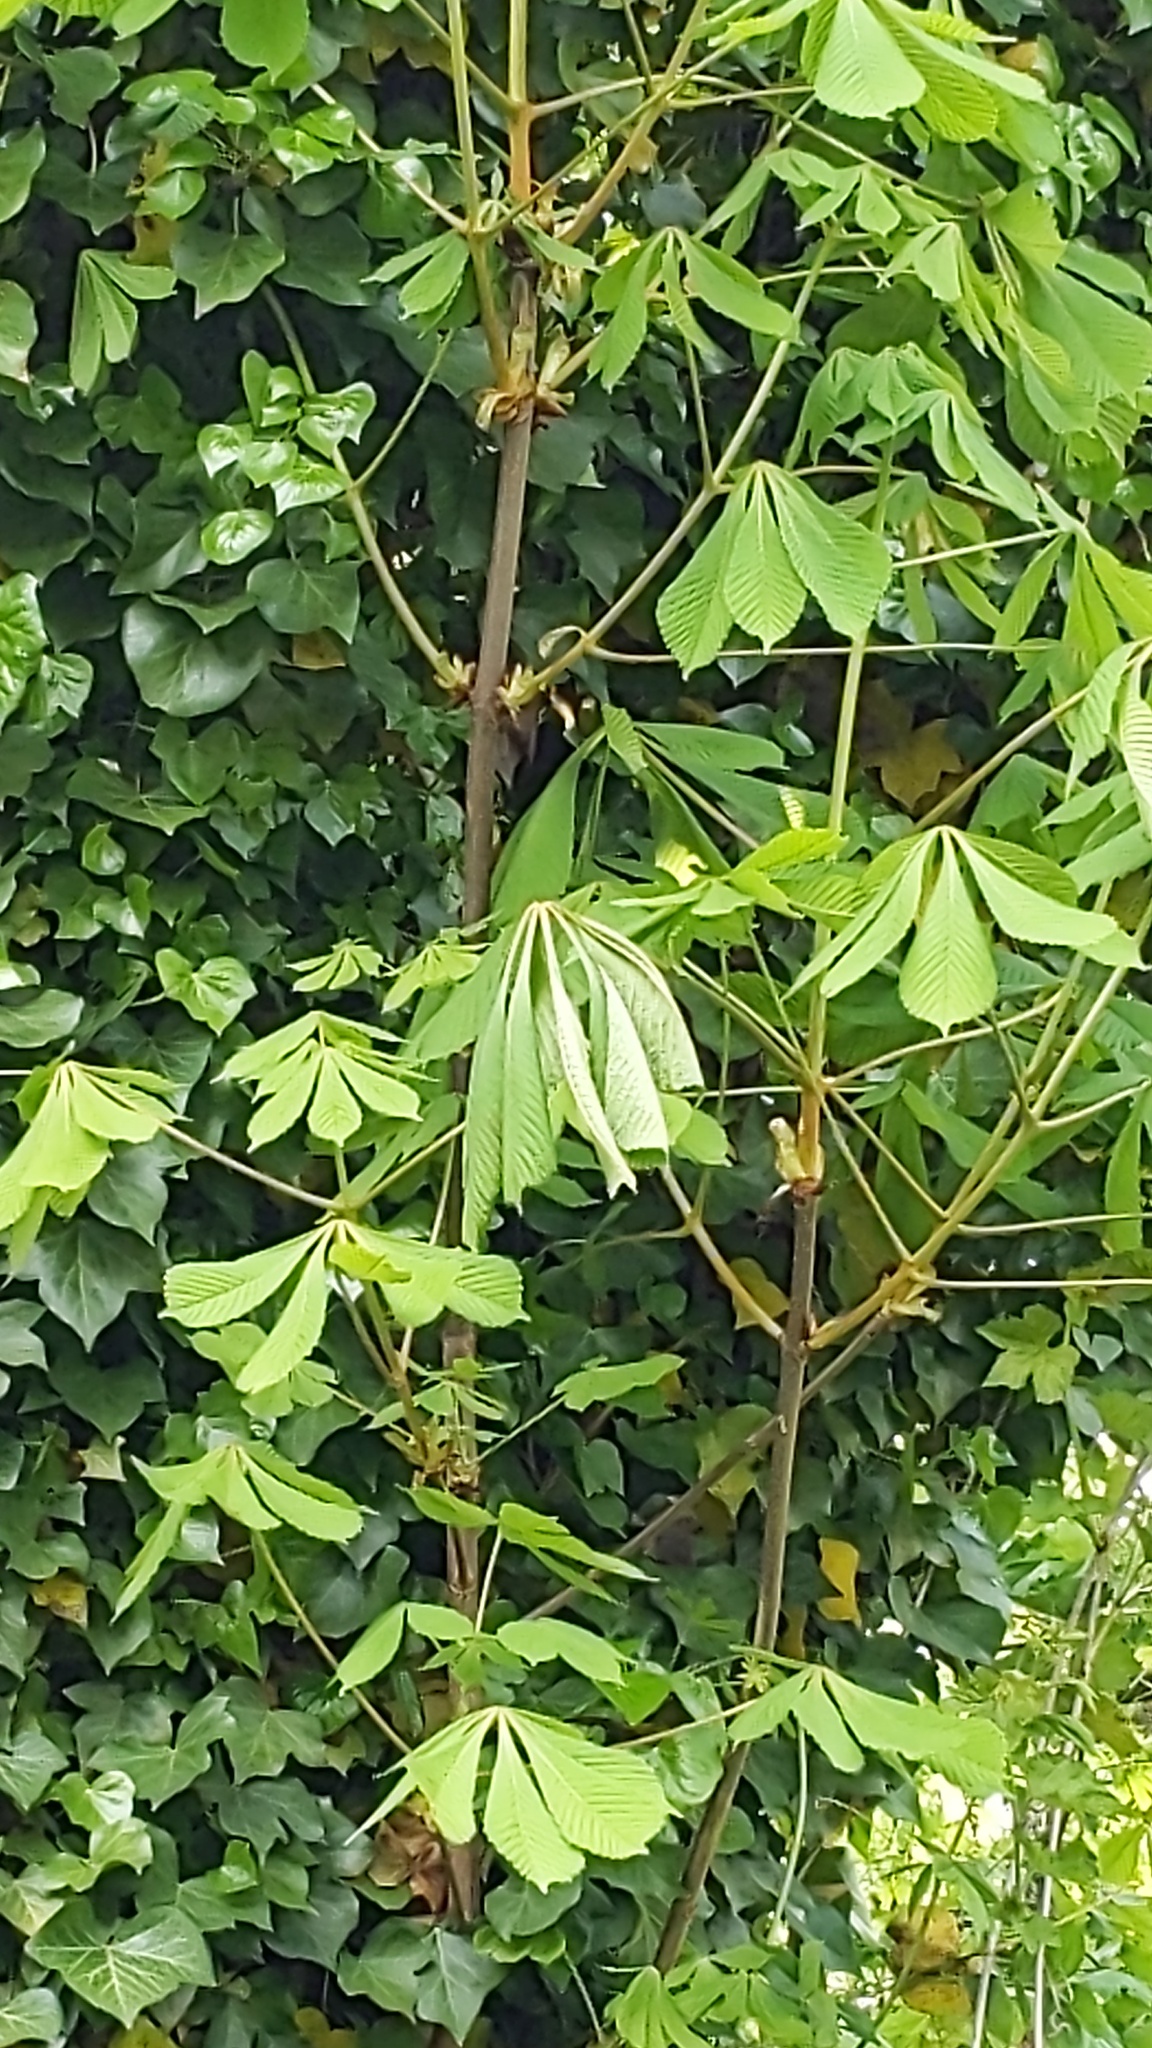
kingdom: Plantae
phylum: Tracheophyta
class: Magnoliopsida
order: Sapindales
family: Sapindaceae
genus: Aesculus
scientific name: Aesculus hippocastanum
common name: Horse-chestnut
